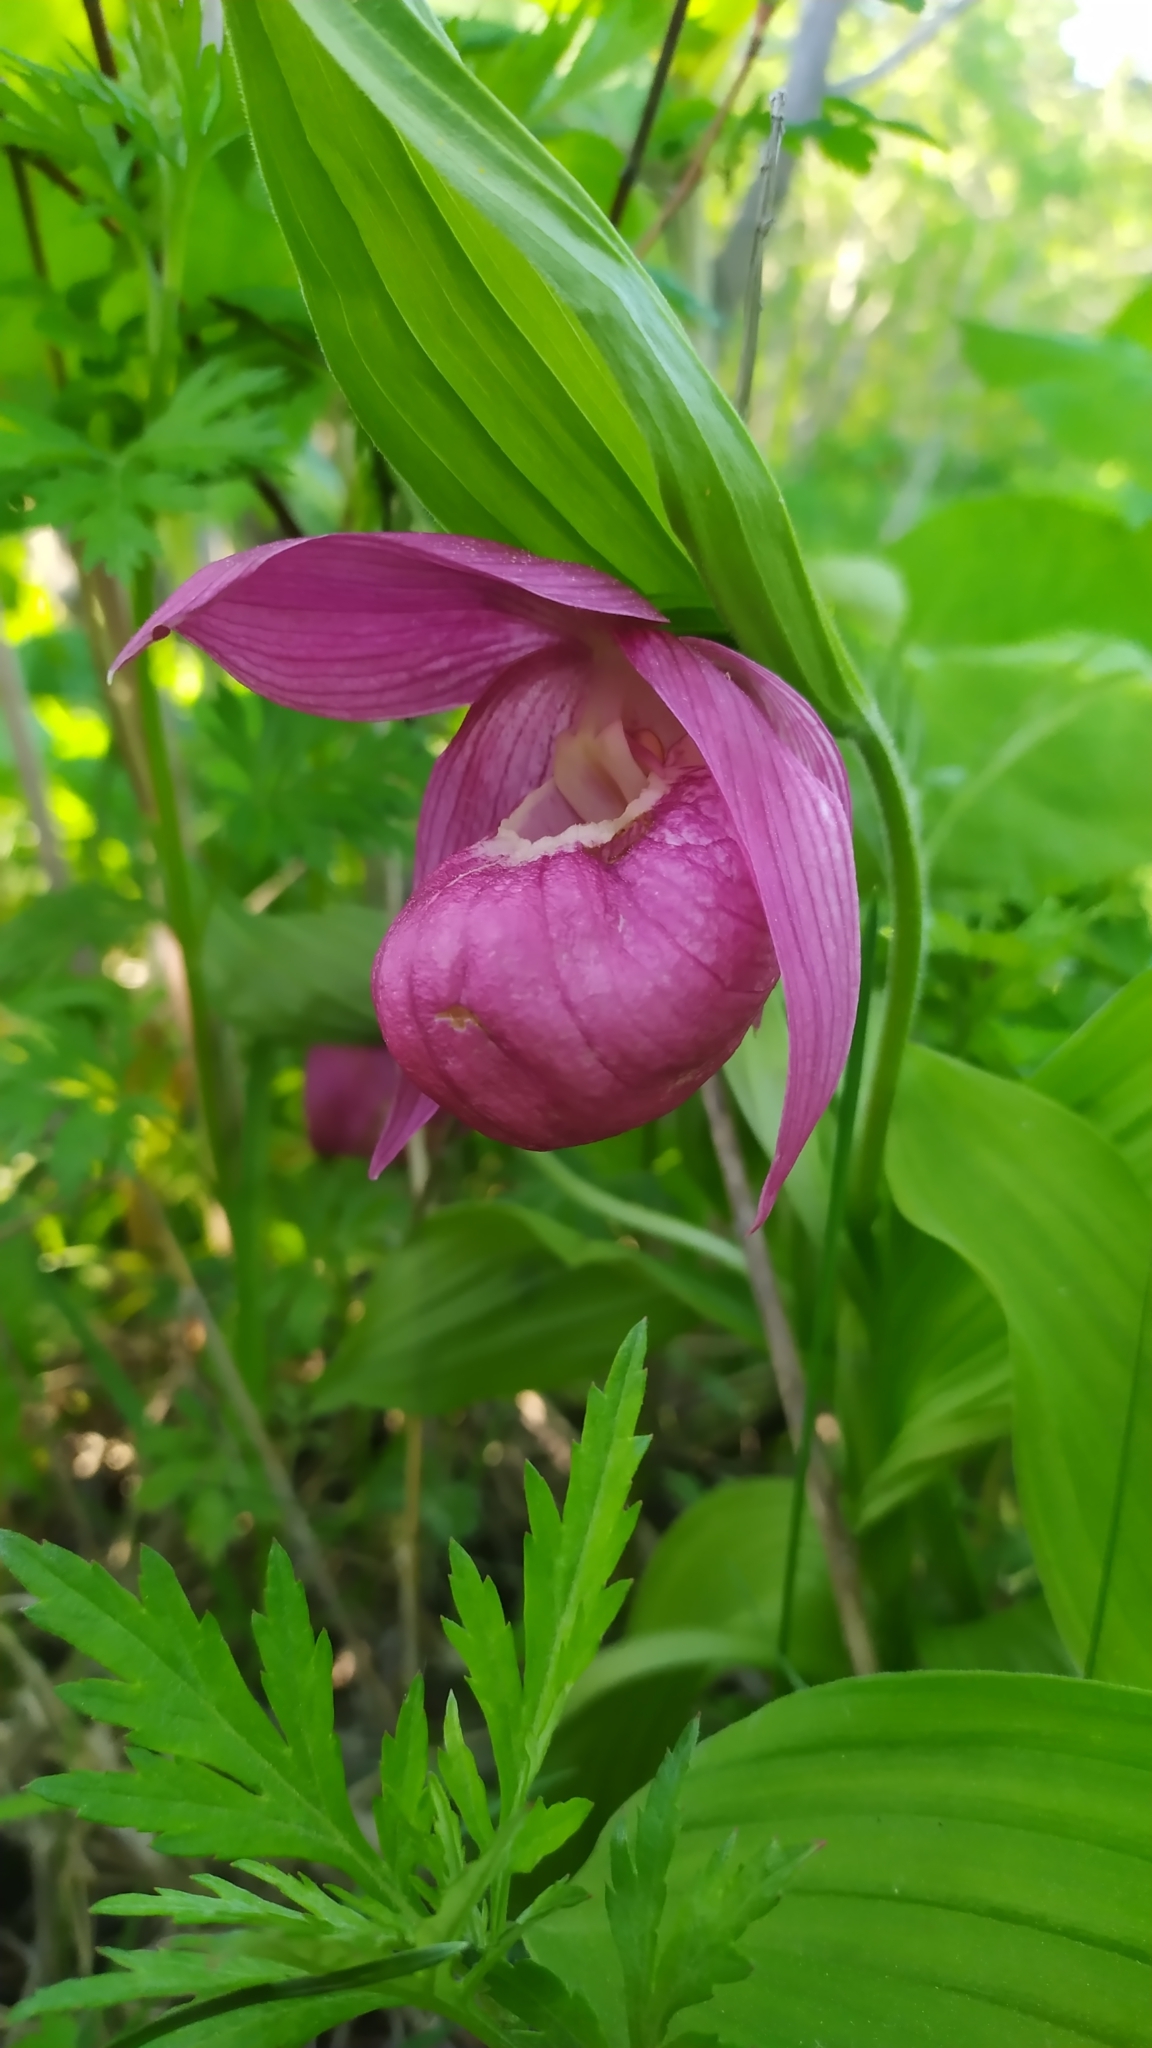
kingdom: Plantae
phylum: Tracheophyta
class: Liliopsida
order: Asparagales
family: Orchidaceae
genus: Cypripedium
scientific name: Cypripedium macranthos
